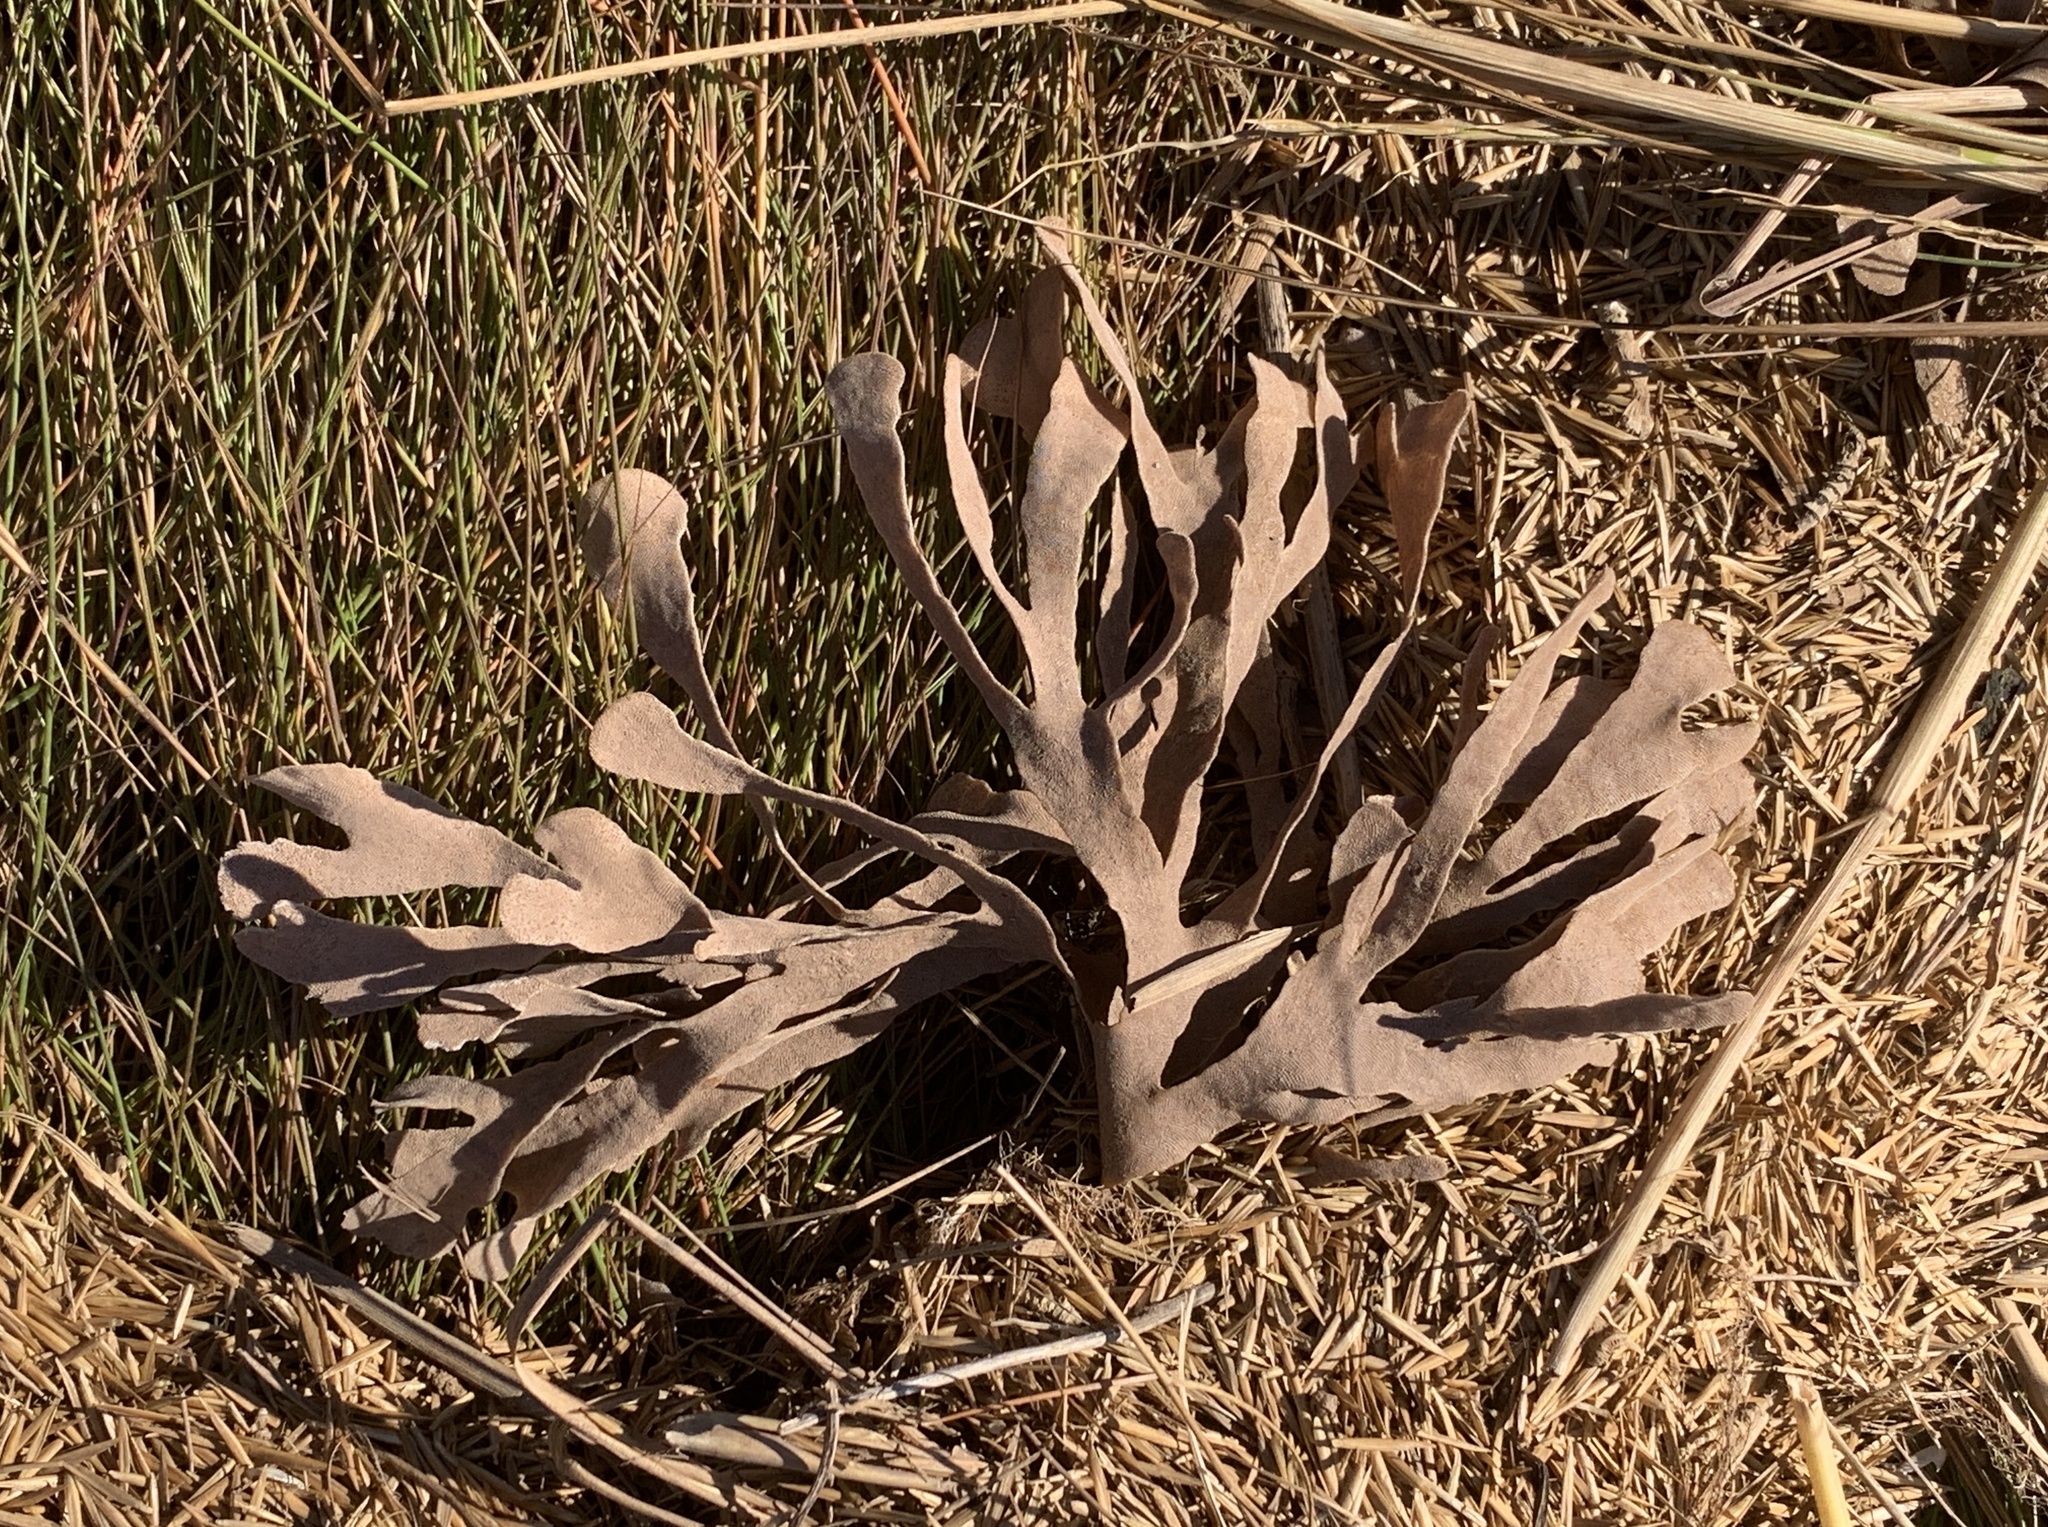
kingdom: Animalia
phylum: Bryozoa
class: Gymnolaemata
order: Cheilostomatida
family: Flustridae
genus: Flustra
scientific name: Flustra foliacea
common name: Hornwrack
